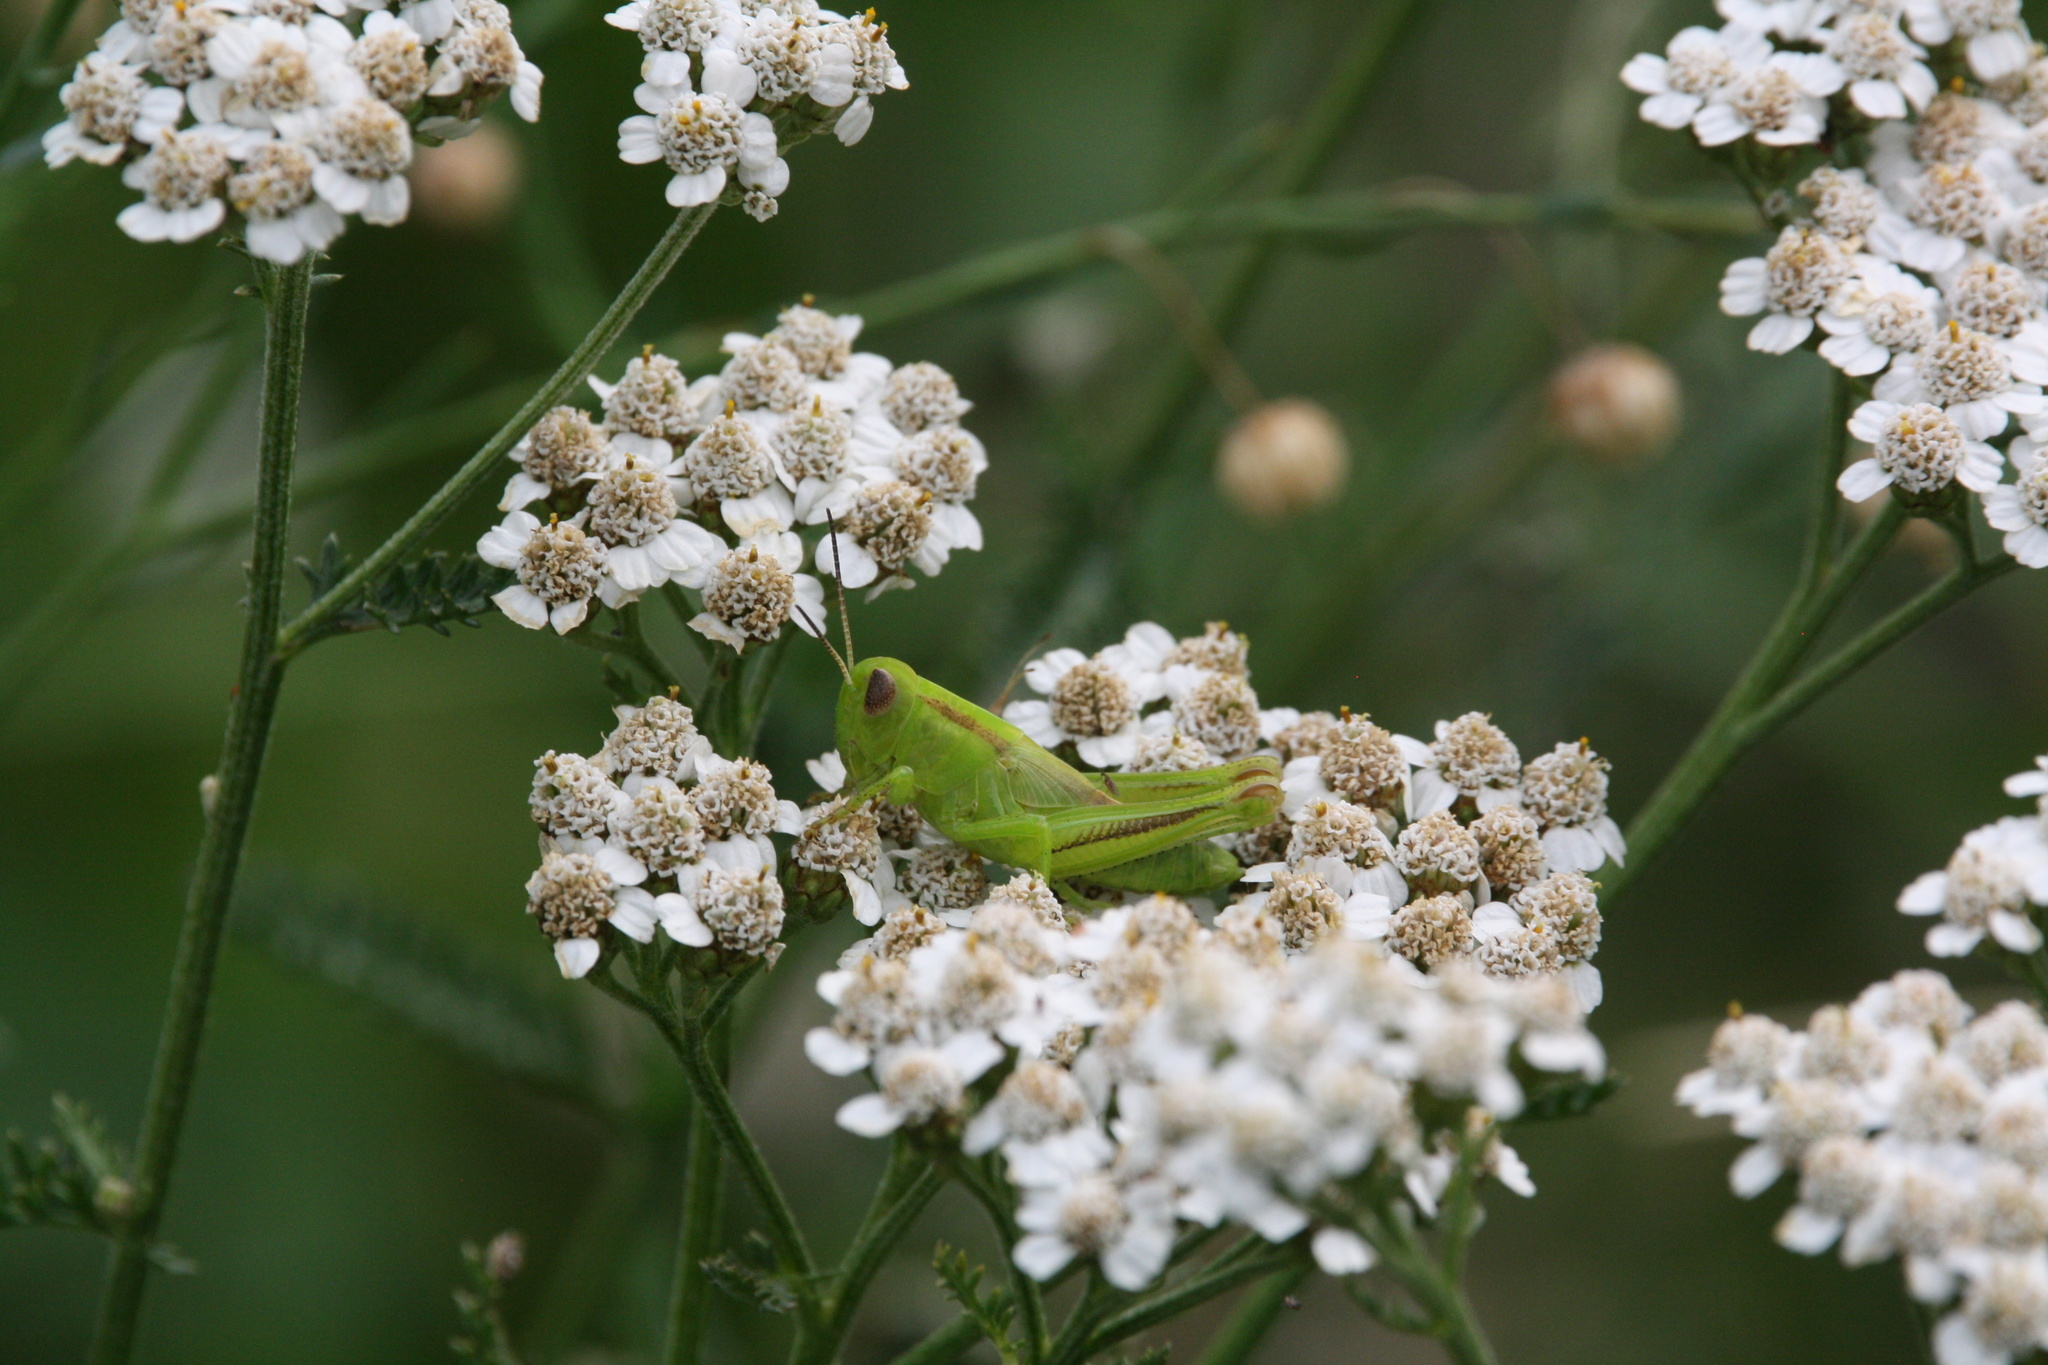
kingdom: Animalia
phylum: Arthropoda
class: Insecta
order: Orthoptera
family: Acrididae
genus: Melanoplus
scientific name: Melanoplus bivittatus
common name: Two-striped grasshopper
